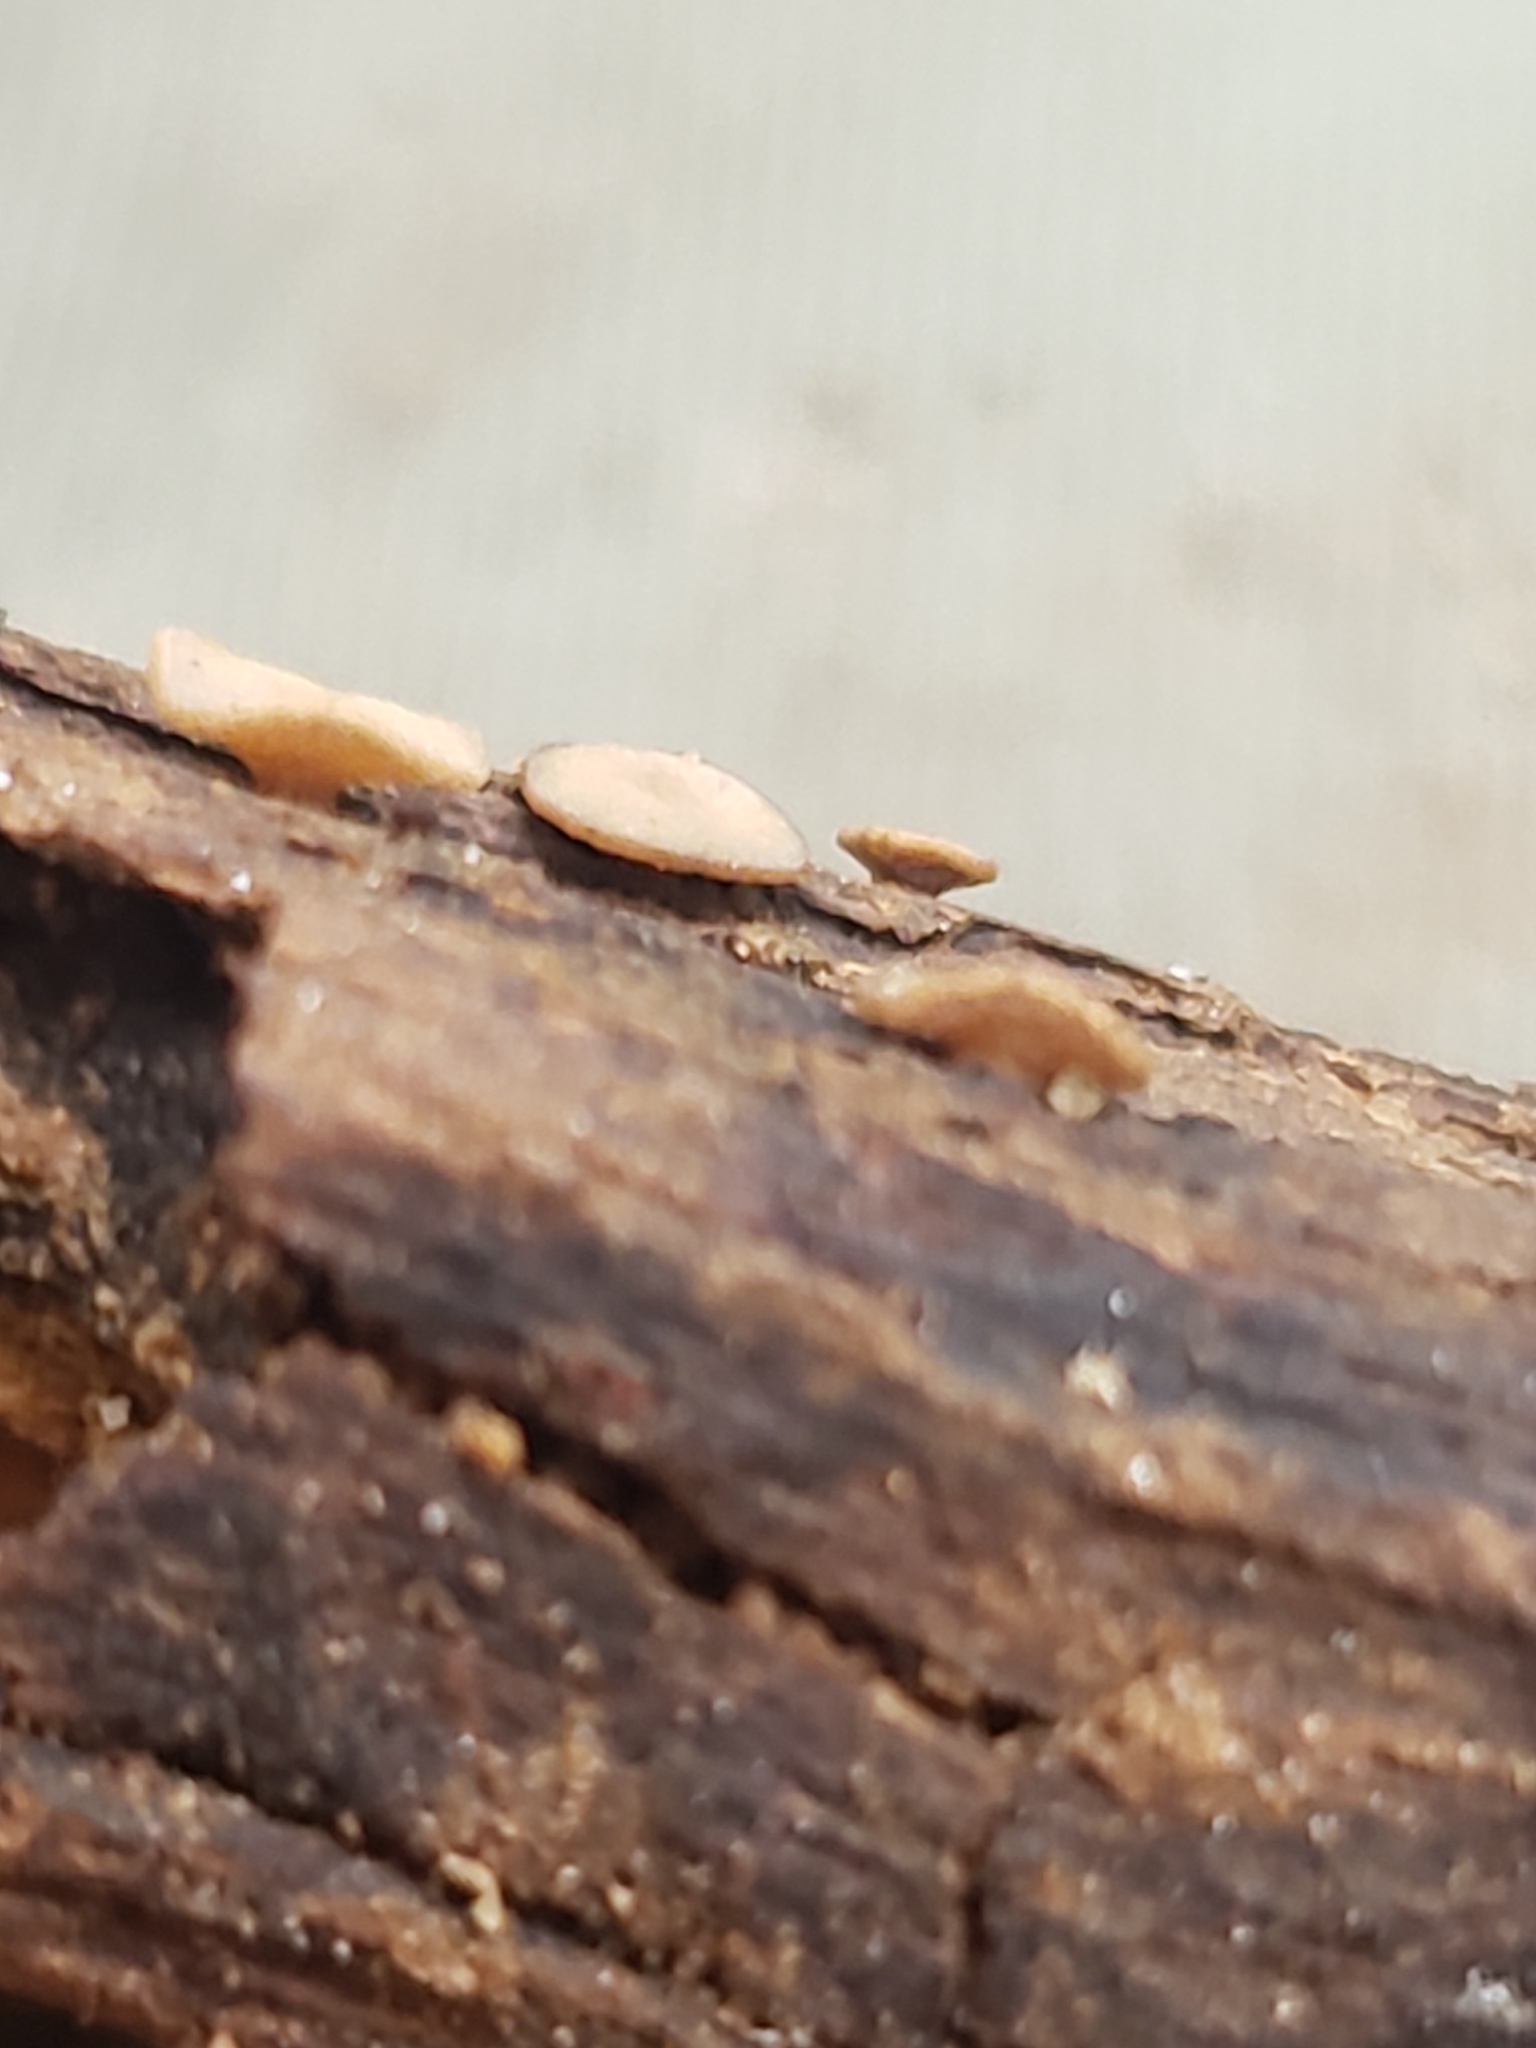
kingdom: Fungi
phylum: Ascomycota
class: Leotiomycetes
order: Helotiales
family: Helotiaceae
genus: Tatraea
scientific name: Tatraea macrospora
